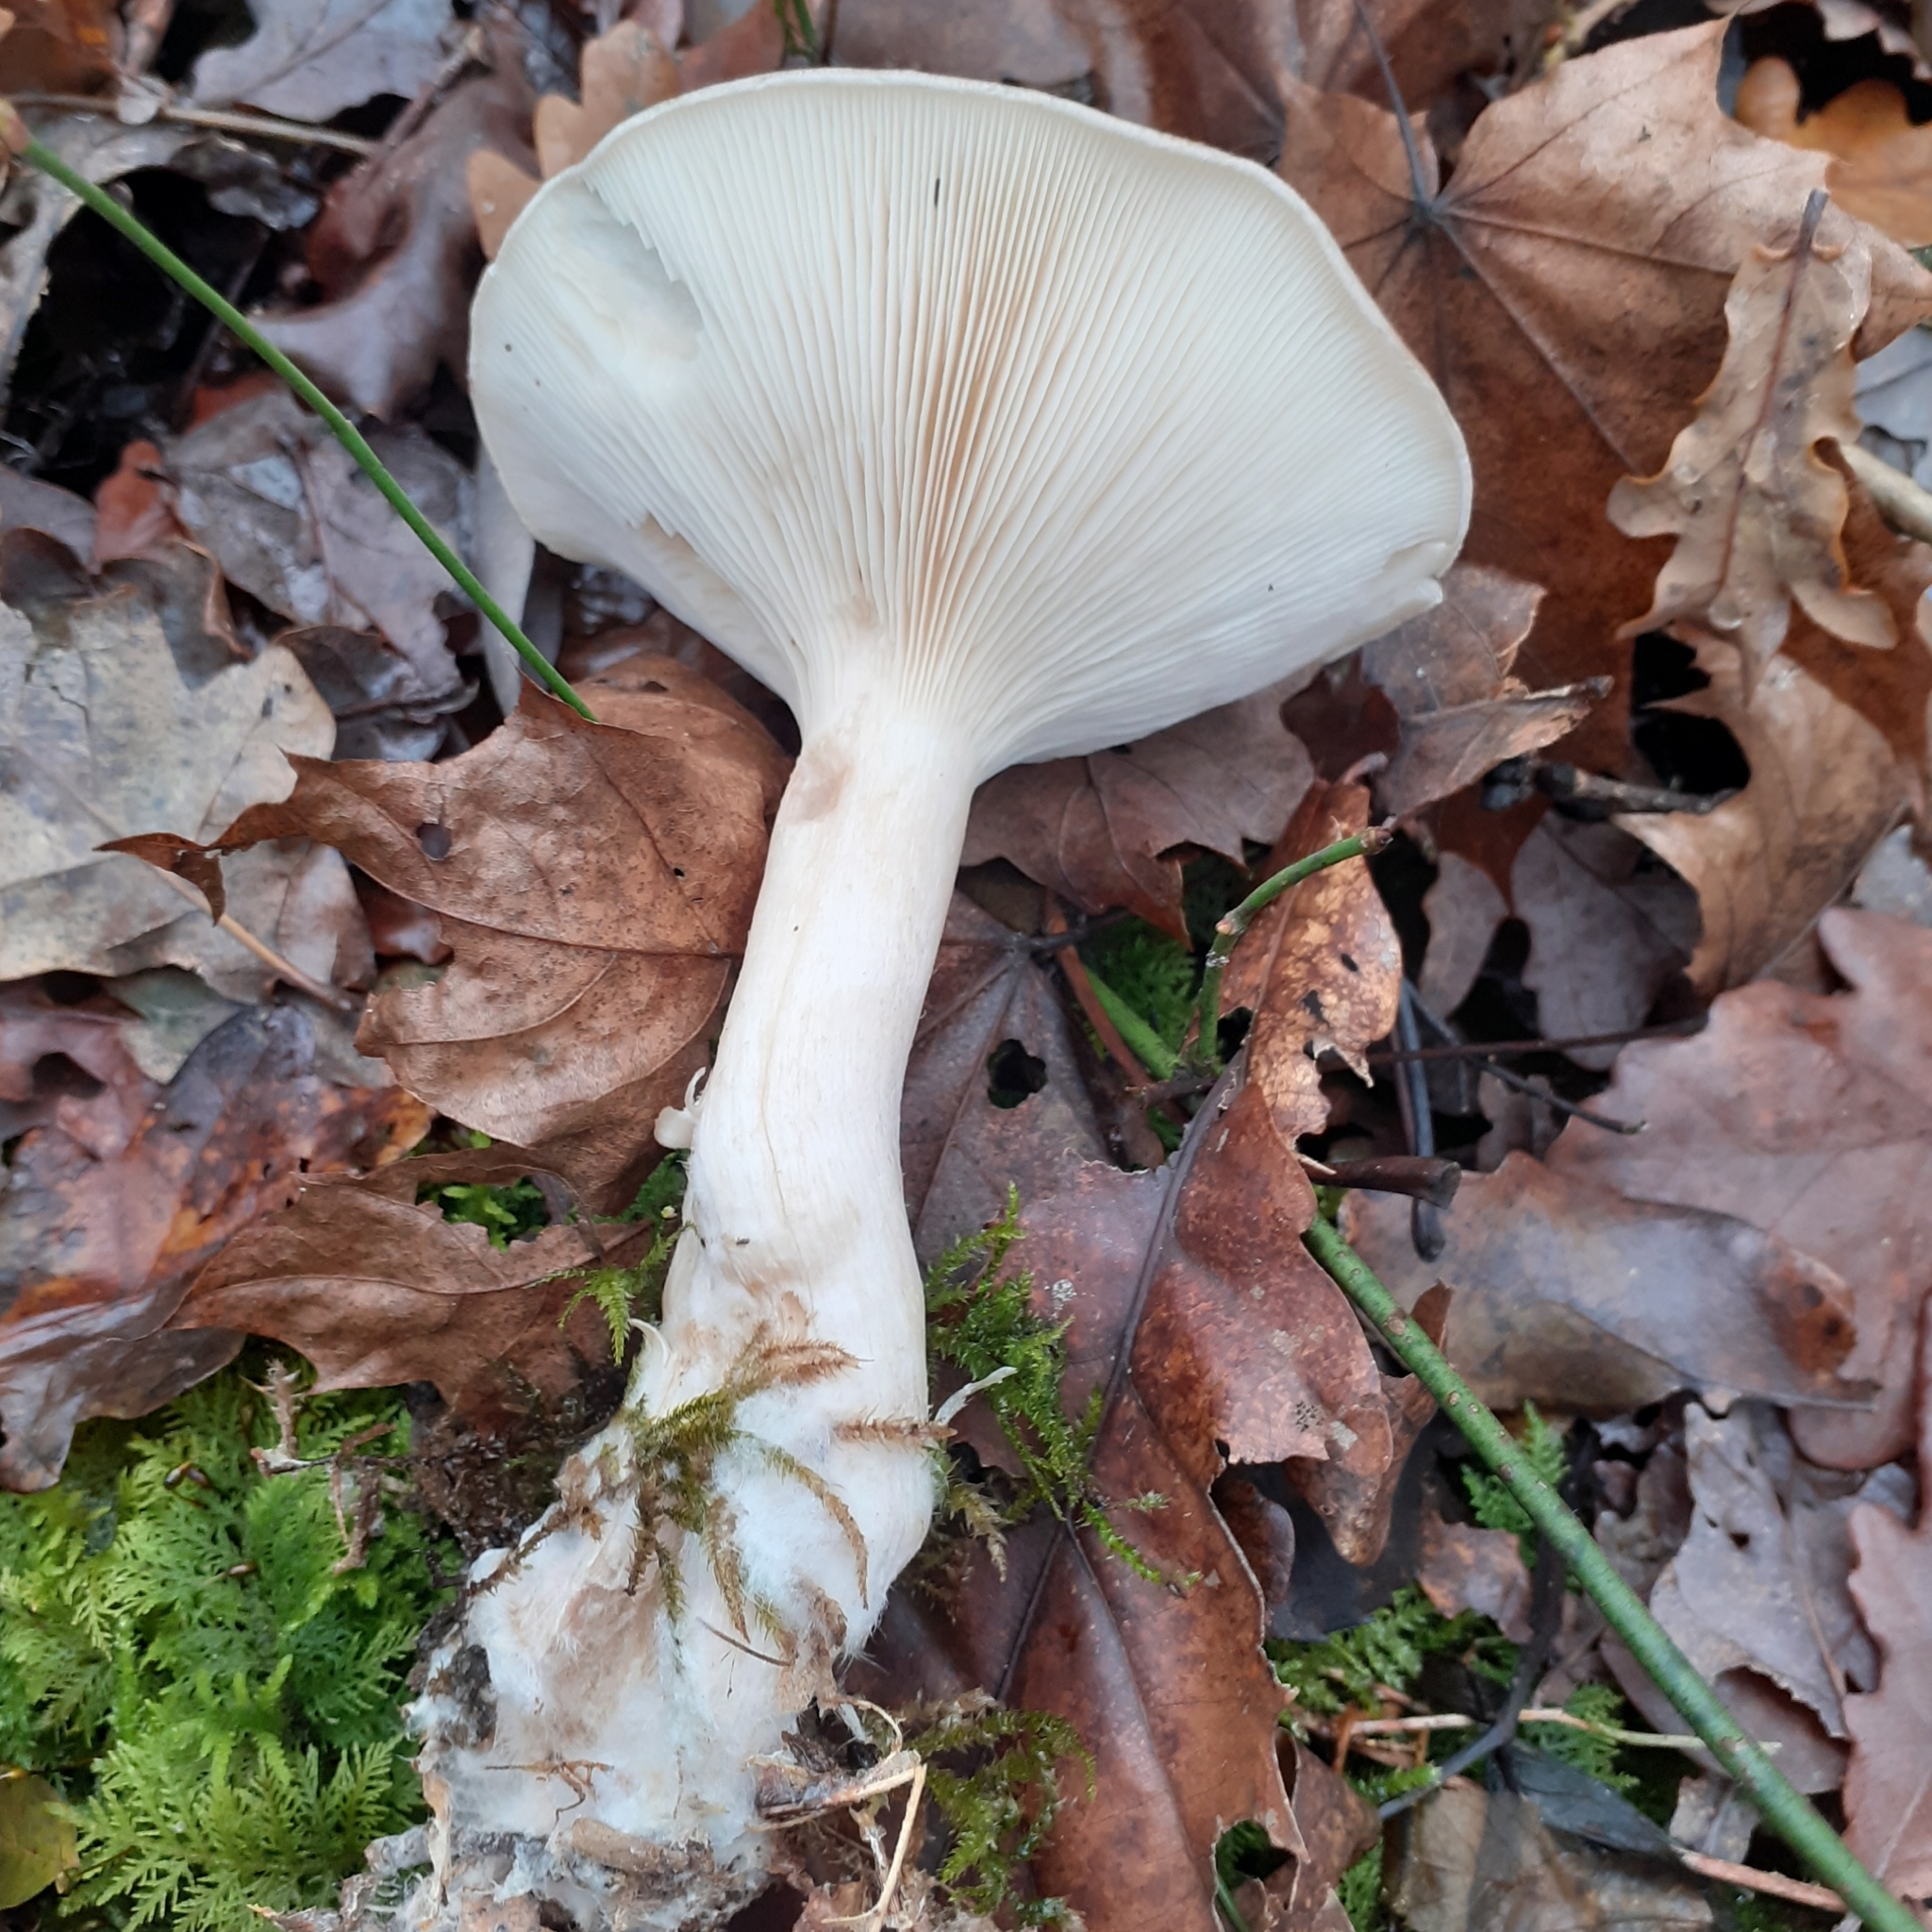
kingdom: Fungi
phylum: Basidiomycota
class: Agaricomycetes
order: Agaricales
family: Tricholomataceae
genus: Clitocybe
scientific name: Clitocybe nebularis
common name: Clouded agaric
